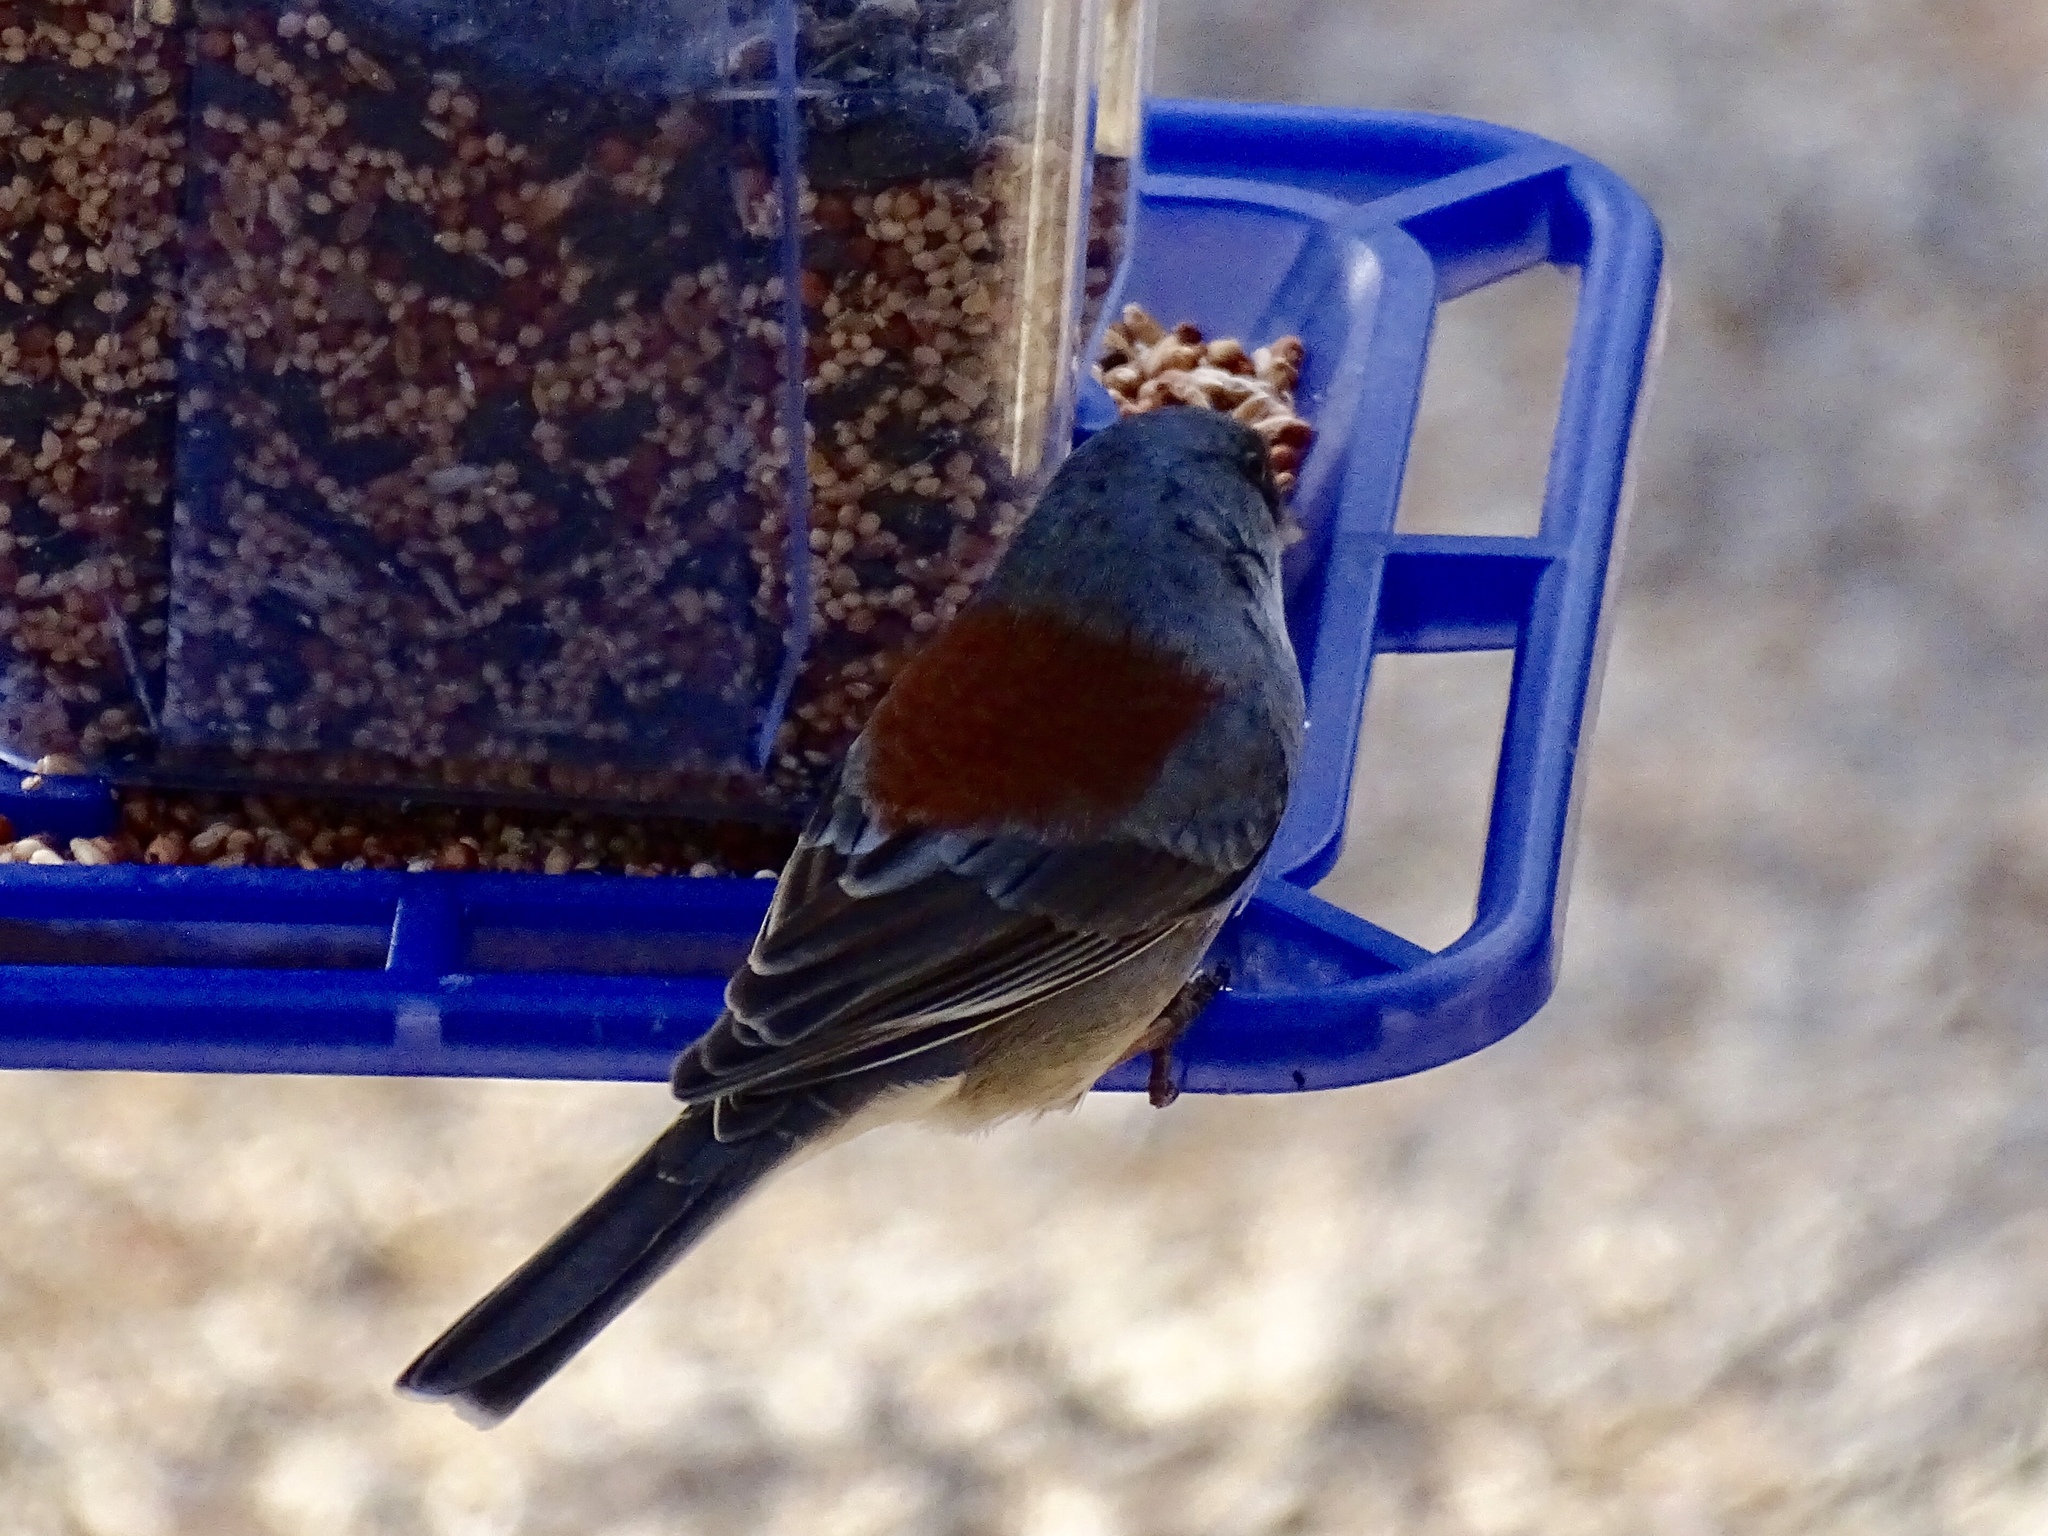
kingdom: Animalia
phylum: Chordata
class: Aves
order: Passeriformes
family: Passerellidae
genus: Junco
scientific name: Junco hyemalis
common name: Dark-eyed junco
